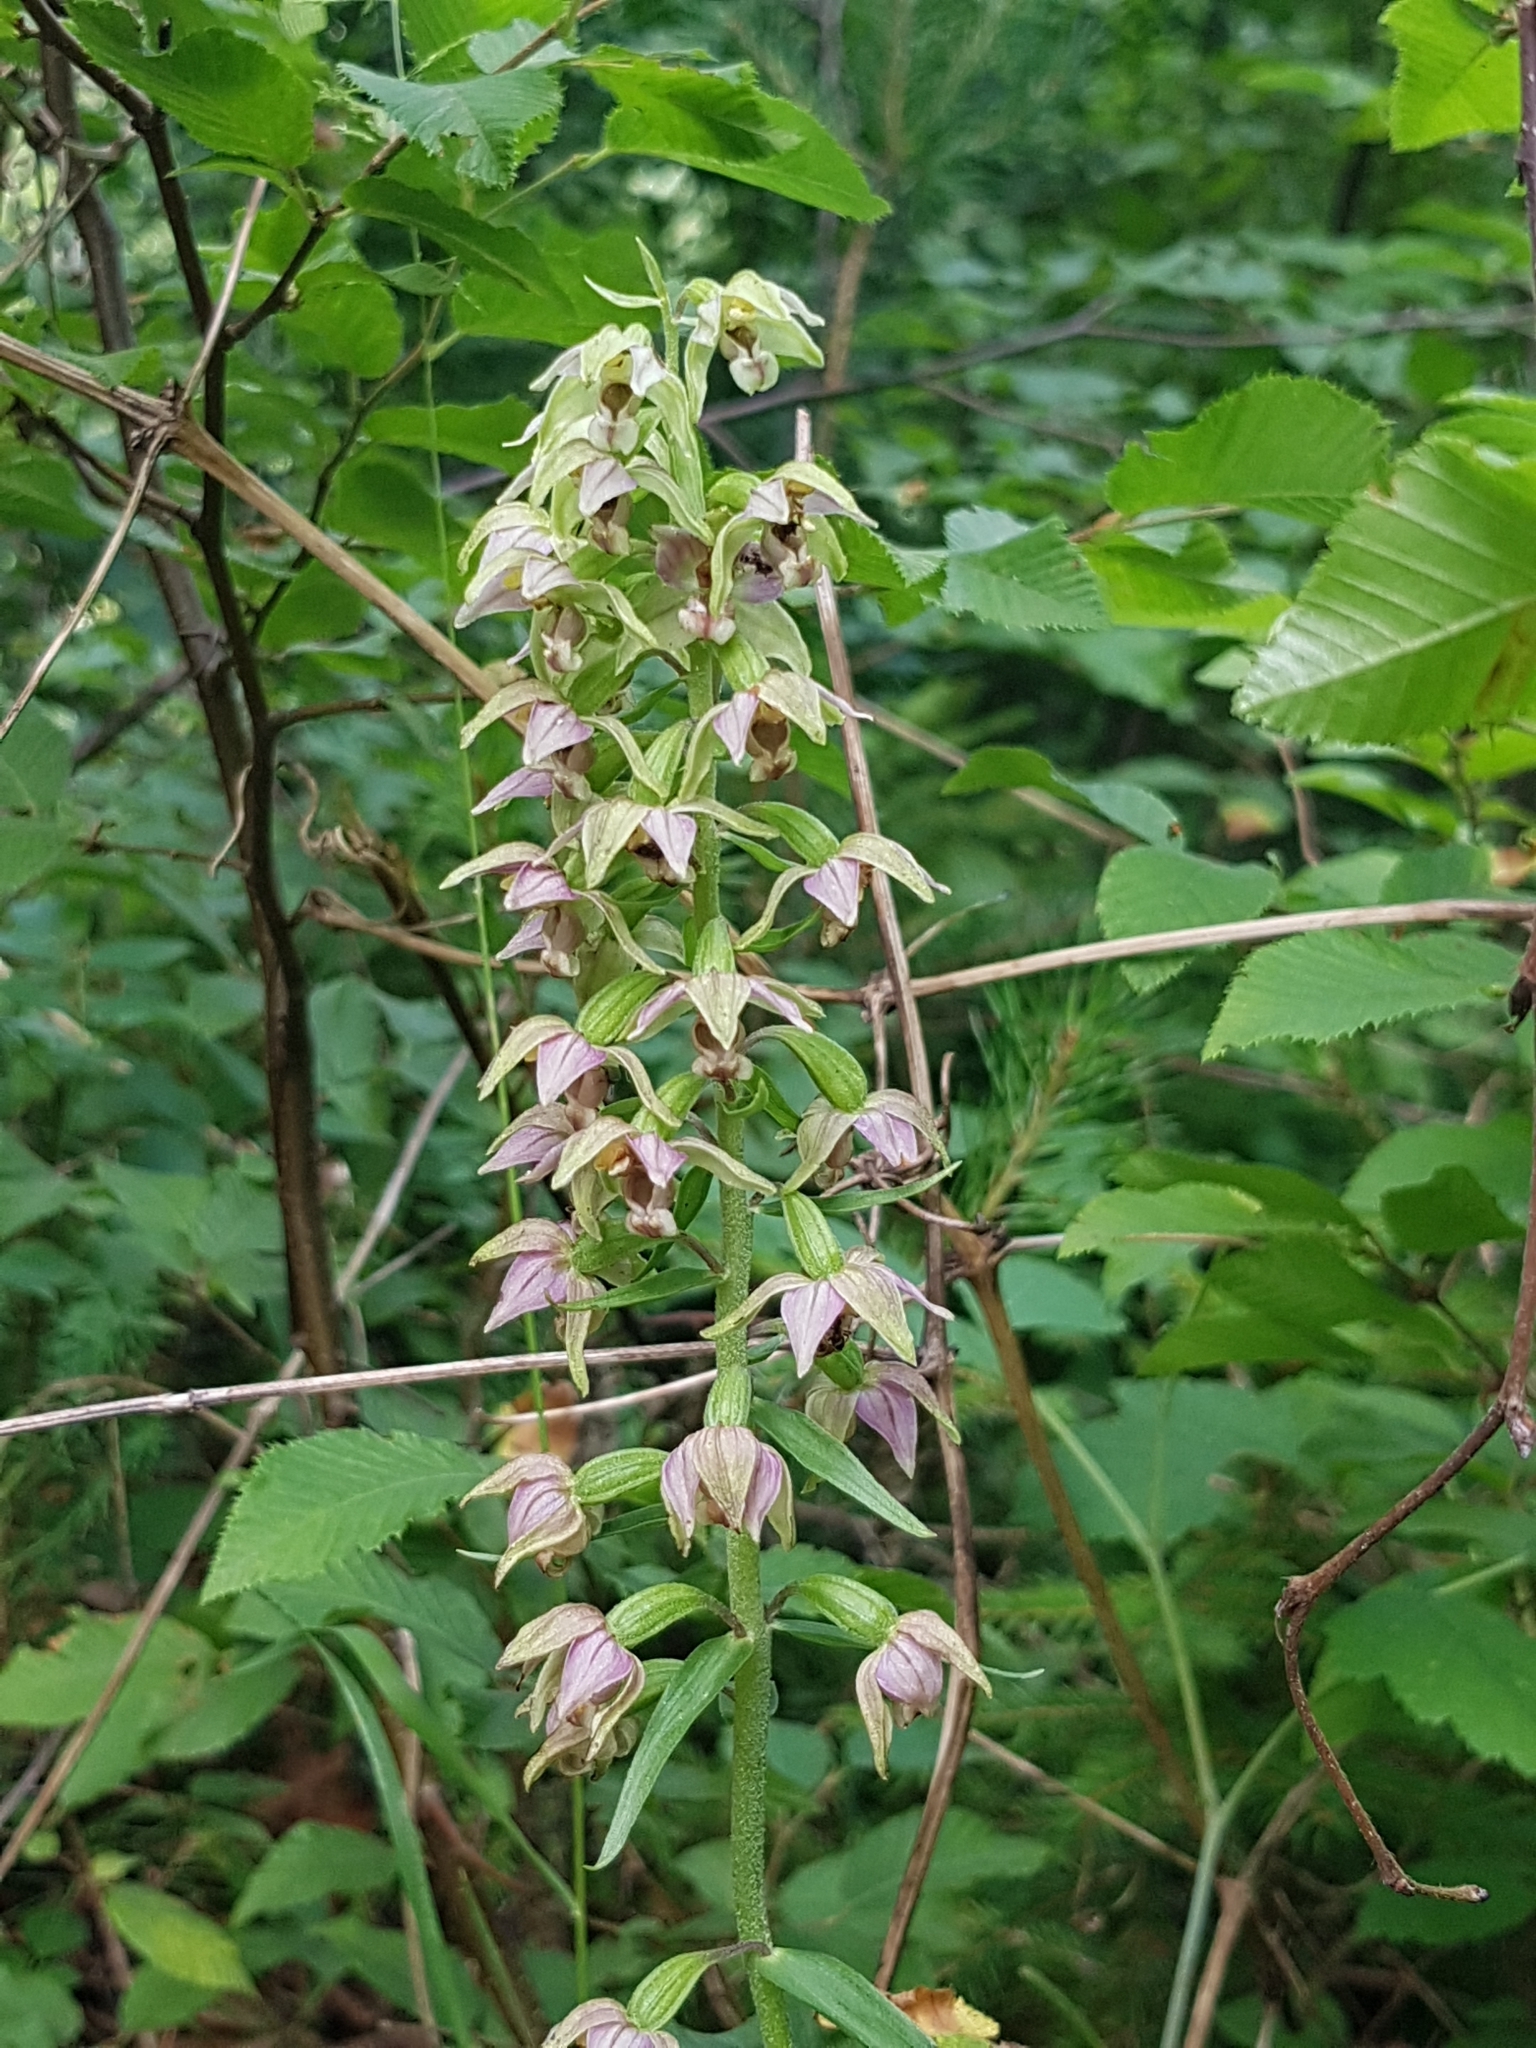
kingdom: Plantae
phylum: Tracheophyta
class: Liliopsida
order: Asparagales
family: Orchidaceae
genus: Epipactis
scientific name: Epipactis helleborine
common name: Broad-leaved helleborine
